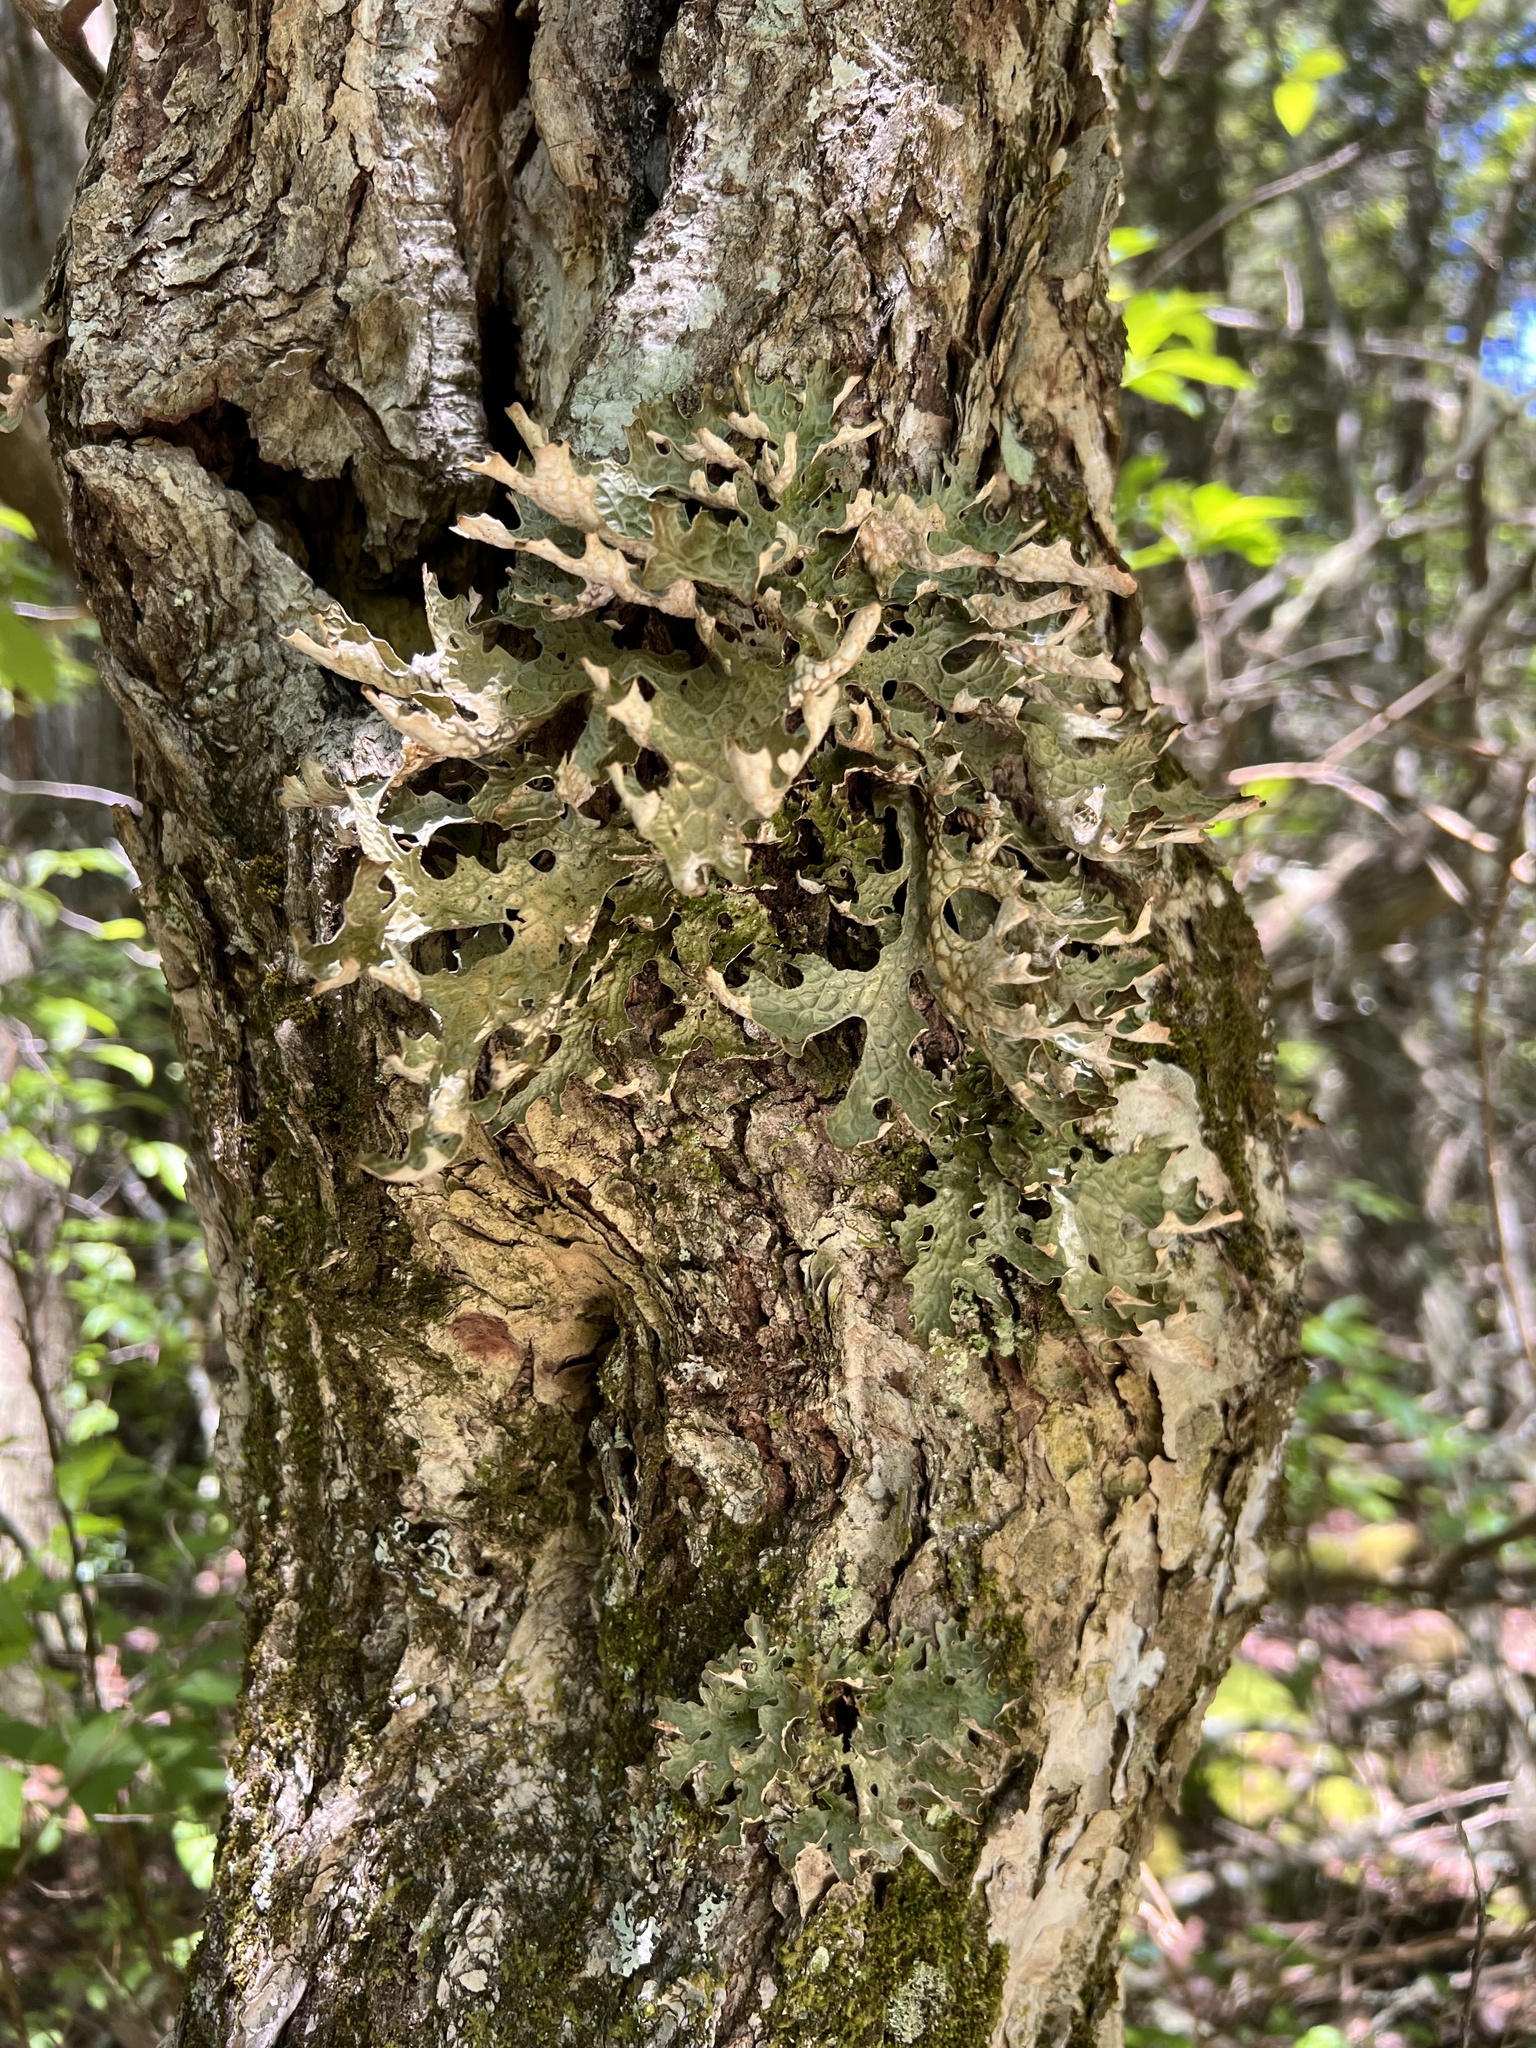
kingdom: Fungi
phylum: Ascomycota
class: Lecanoromycetes
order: Peltigerales
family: Lobariaceae
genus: Lobaria
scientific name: Lobaria pulmonaria
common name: Lungwort
